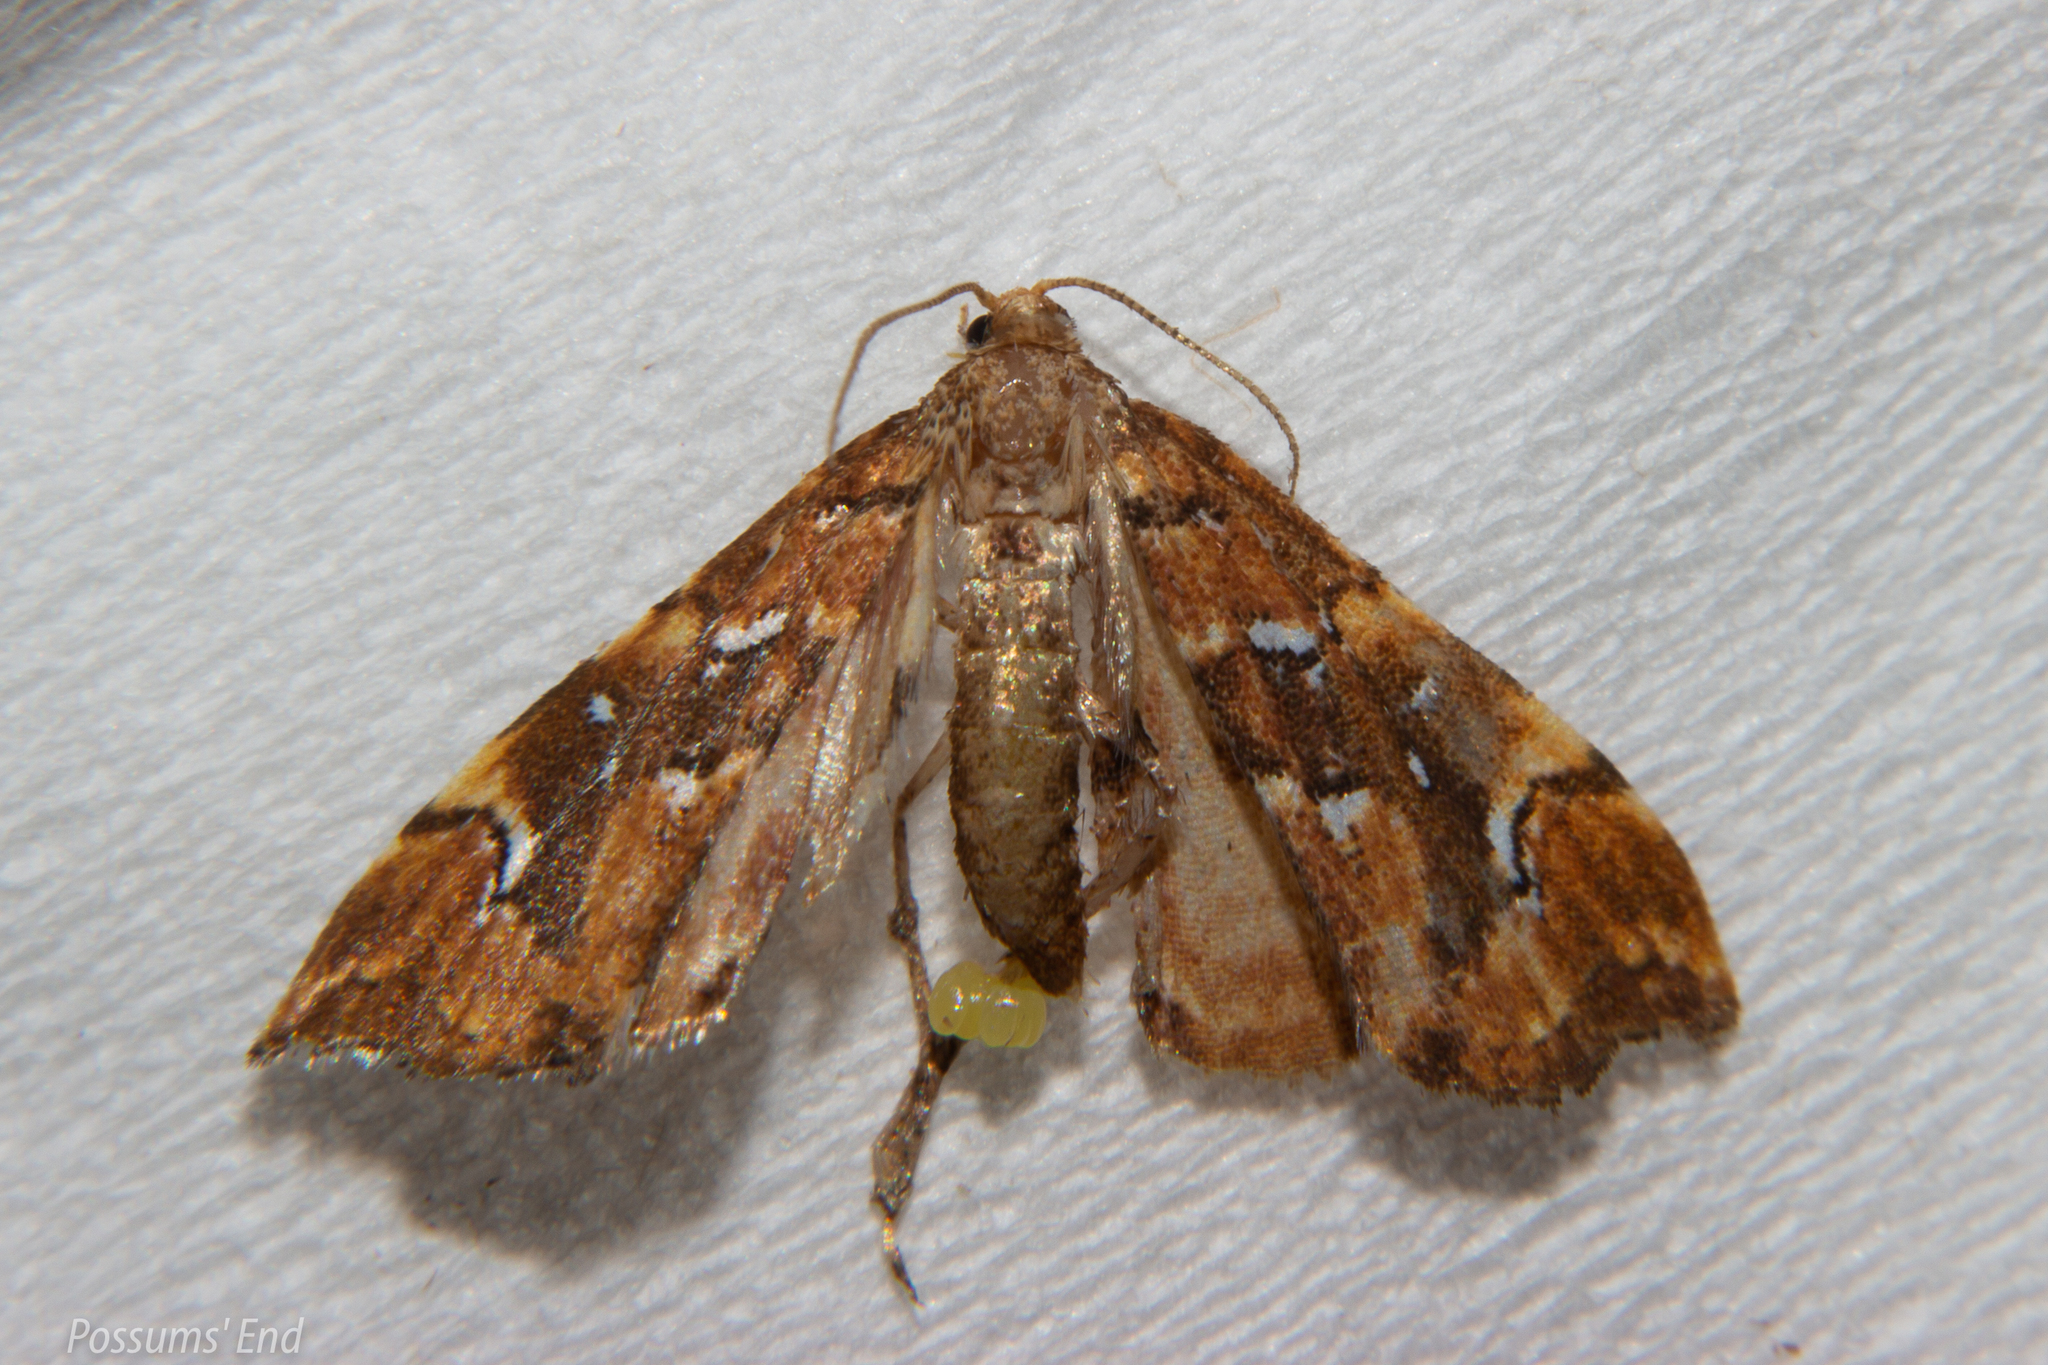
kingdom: Animalia
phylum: Arthropoda
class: Insecta
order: Lepidoptera
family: Pyralidae
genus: Musotima
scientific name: Musotima nitidalis
